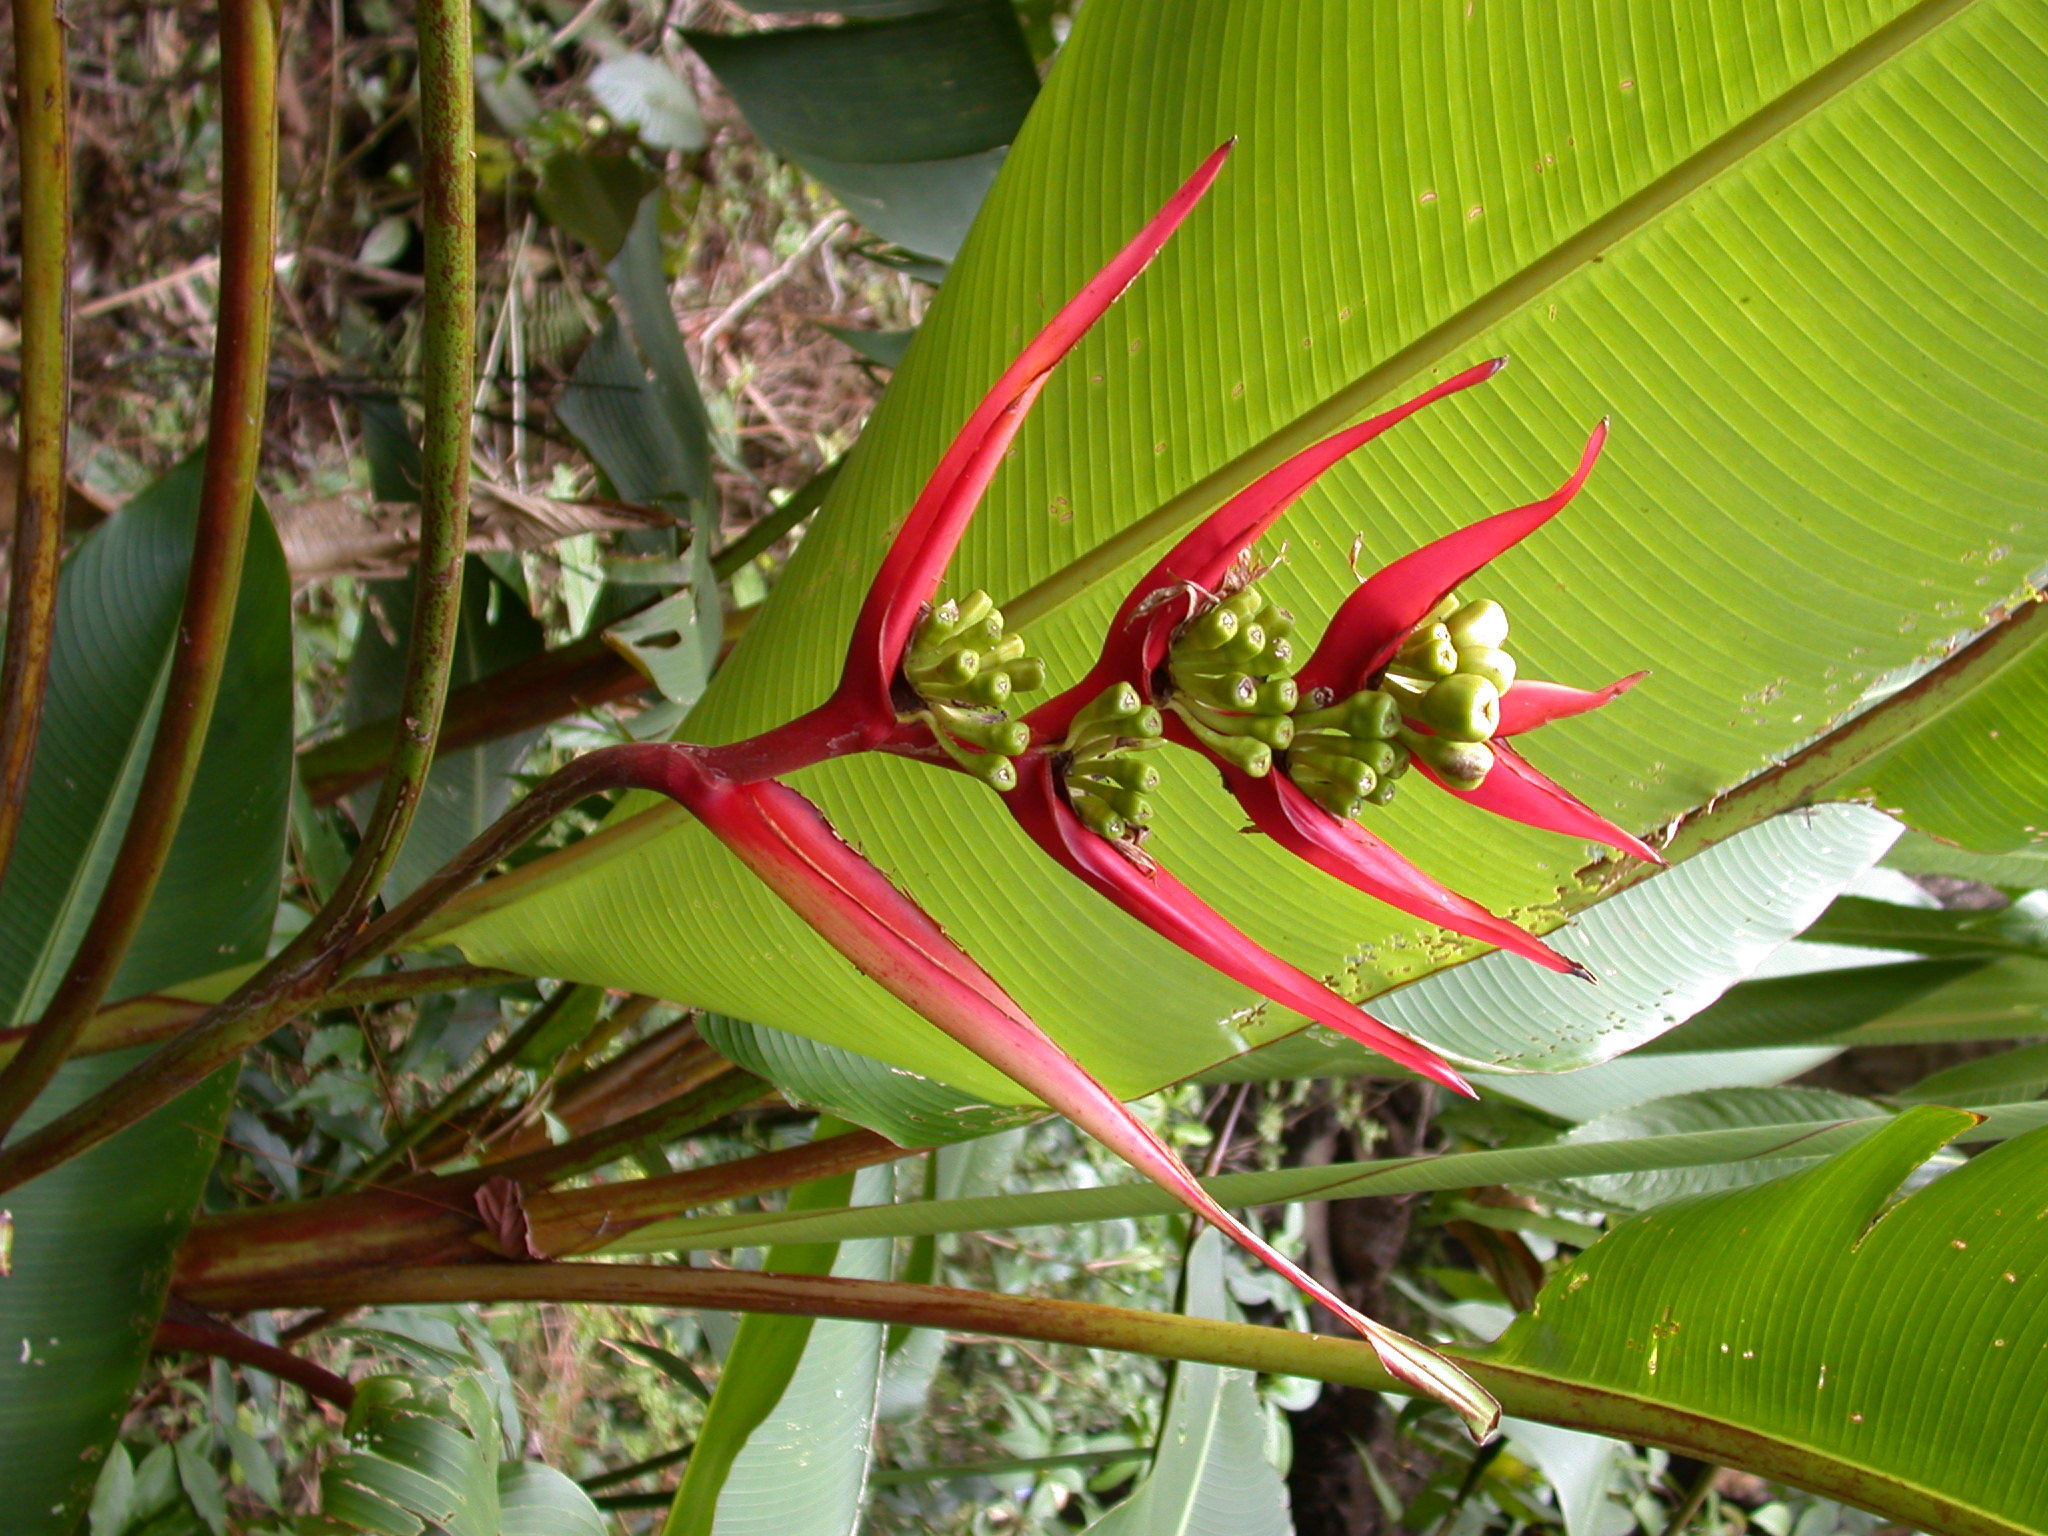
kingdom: Plantae
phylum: Tracheophyta
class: Liliopsida
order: Zingiberales
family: Heliconiaceae
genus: Heliconia
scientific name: Heliconia adflexa
